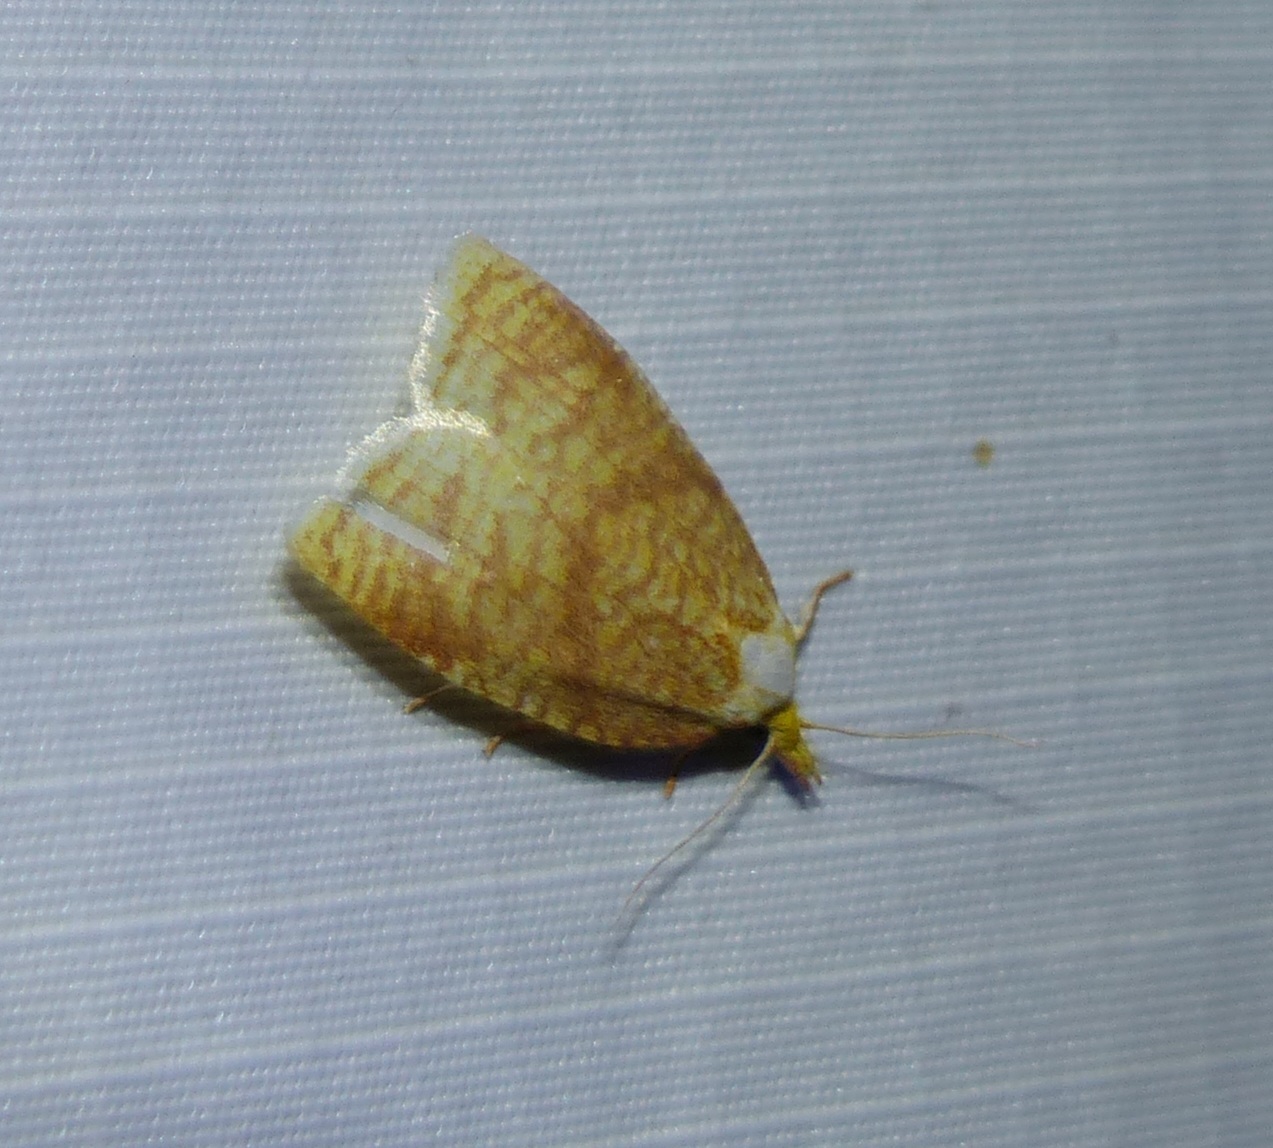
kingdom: Animalia
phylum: Arthropoda
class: Insecta
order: Lepidoptera
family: Tortricidae
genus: Cenopis
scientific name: Cenopis pettitana
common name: Maple-basswood leafroller moth
